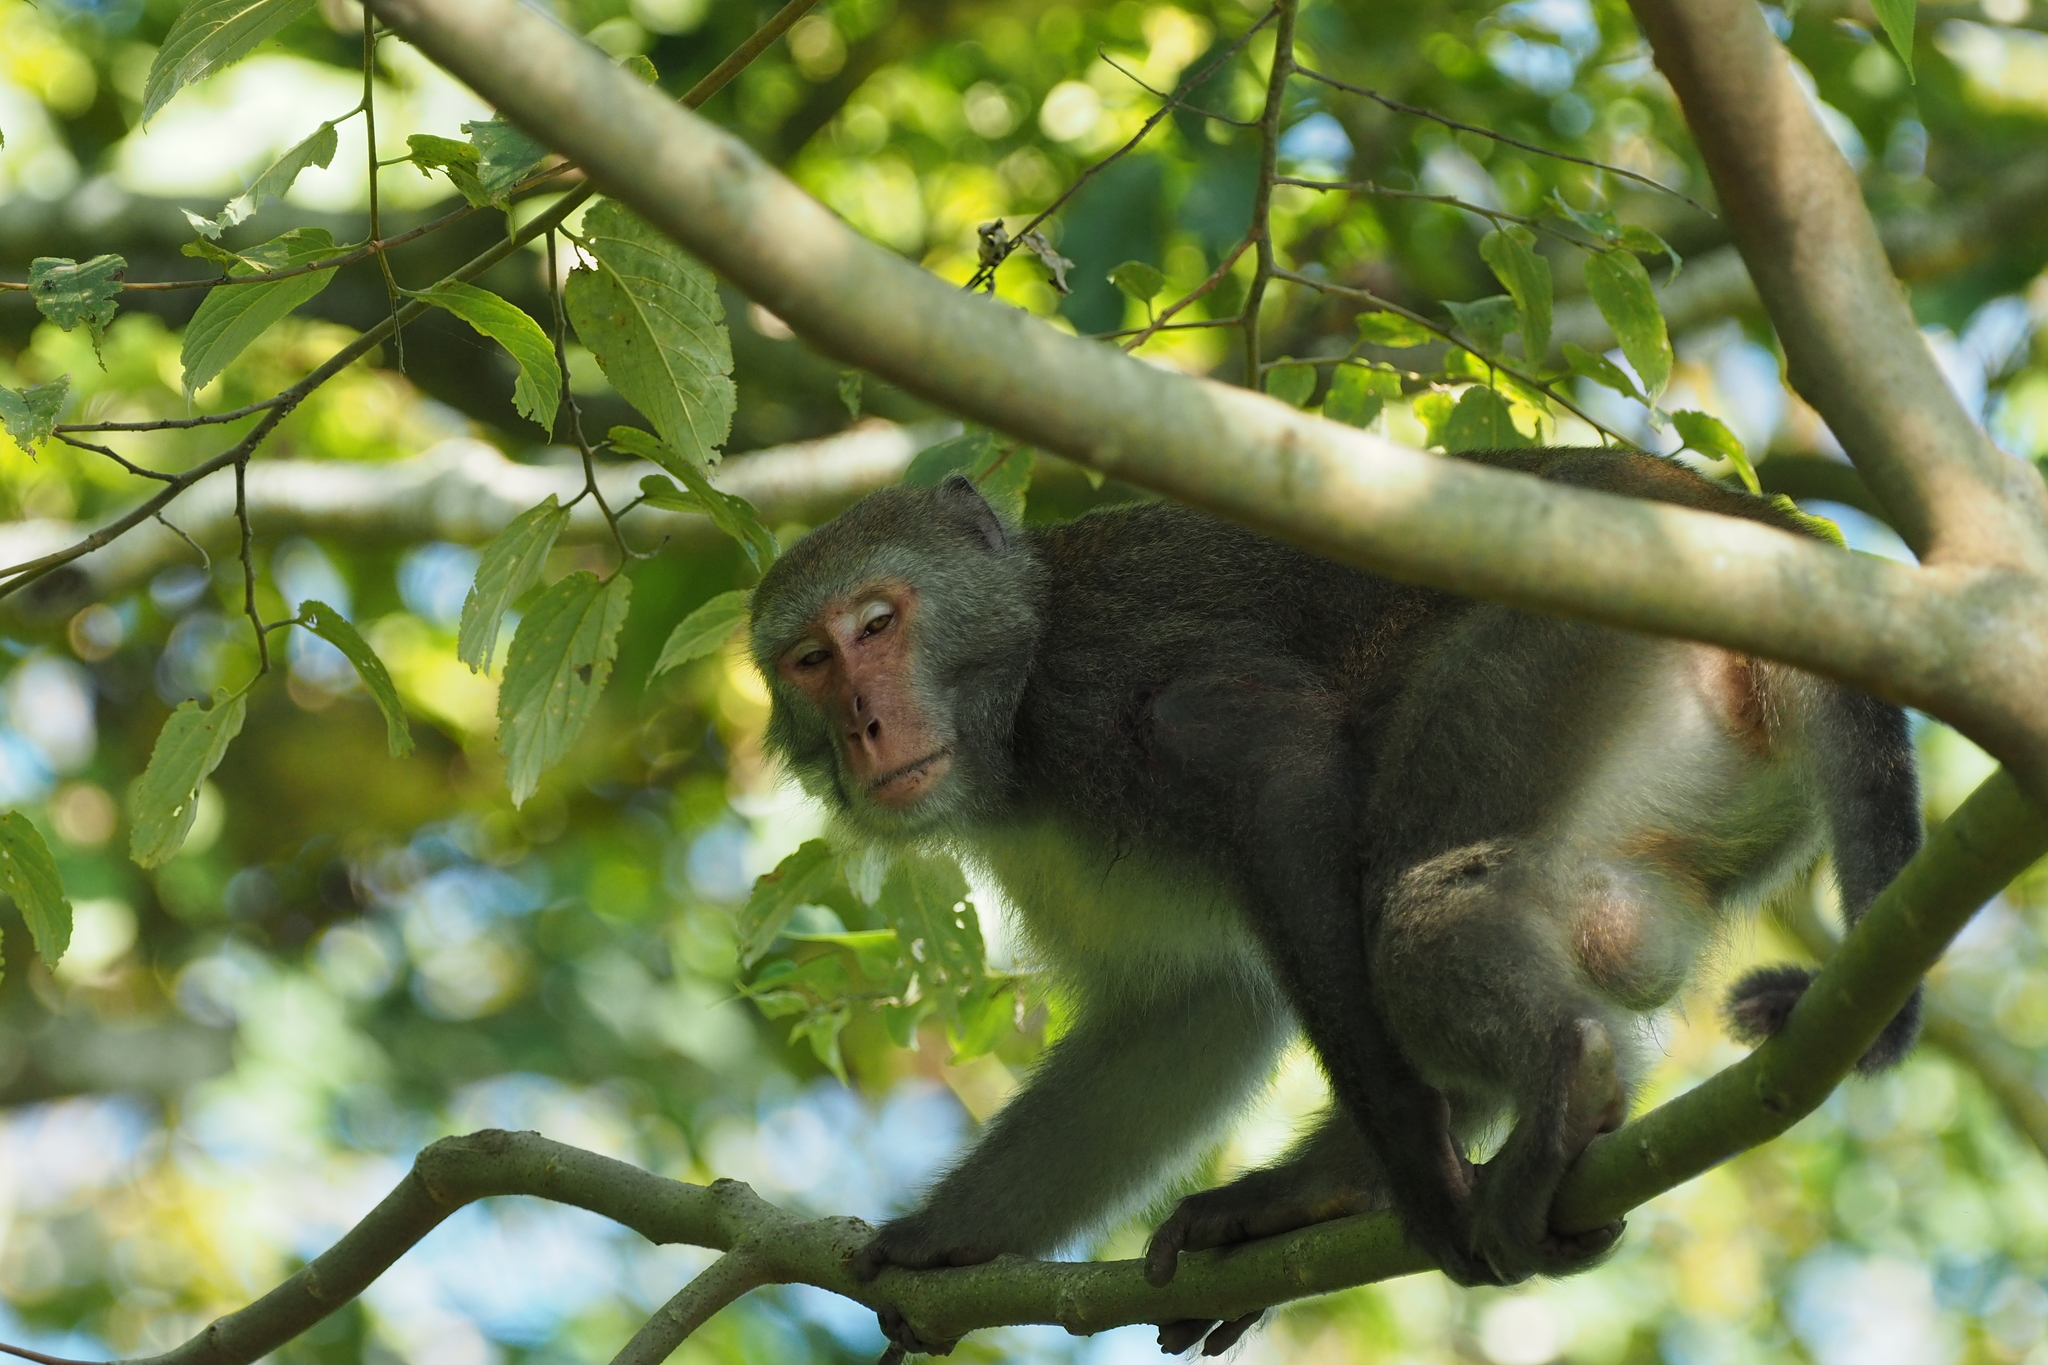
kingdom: Animalia
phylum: Chordata
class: Mammalia
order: Primates
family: Cercopithecidae
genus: Macaca
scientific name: Macaca cyclopis
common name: Formosan rock macaque
